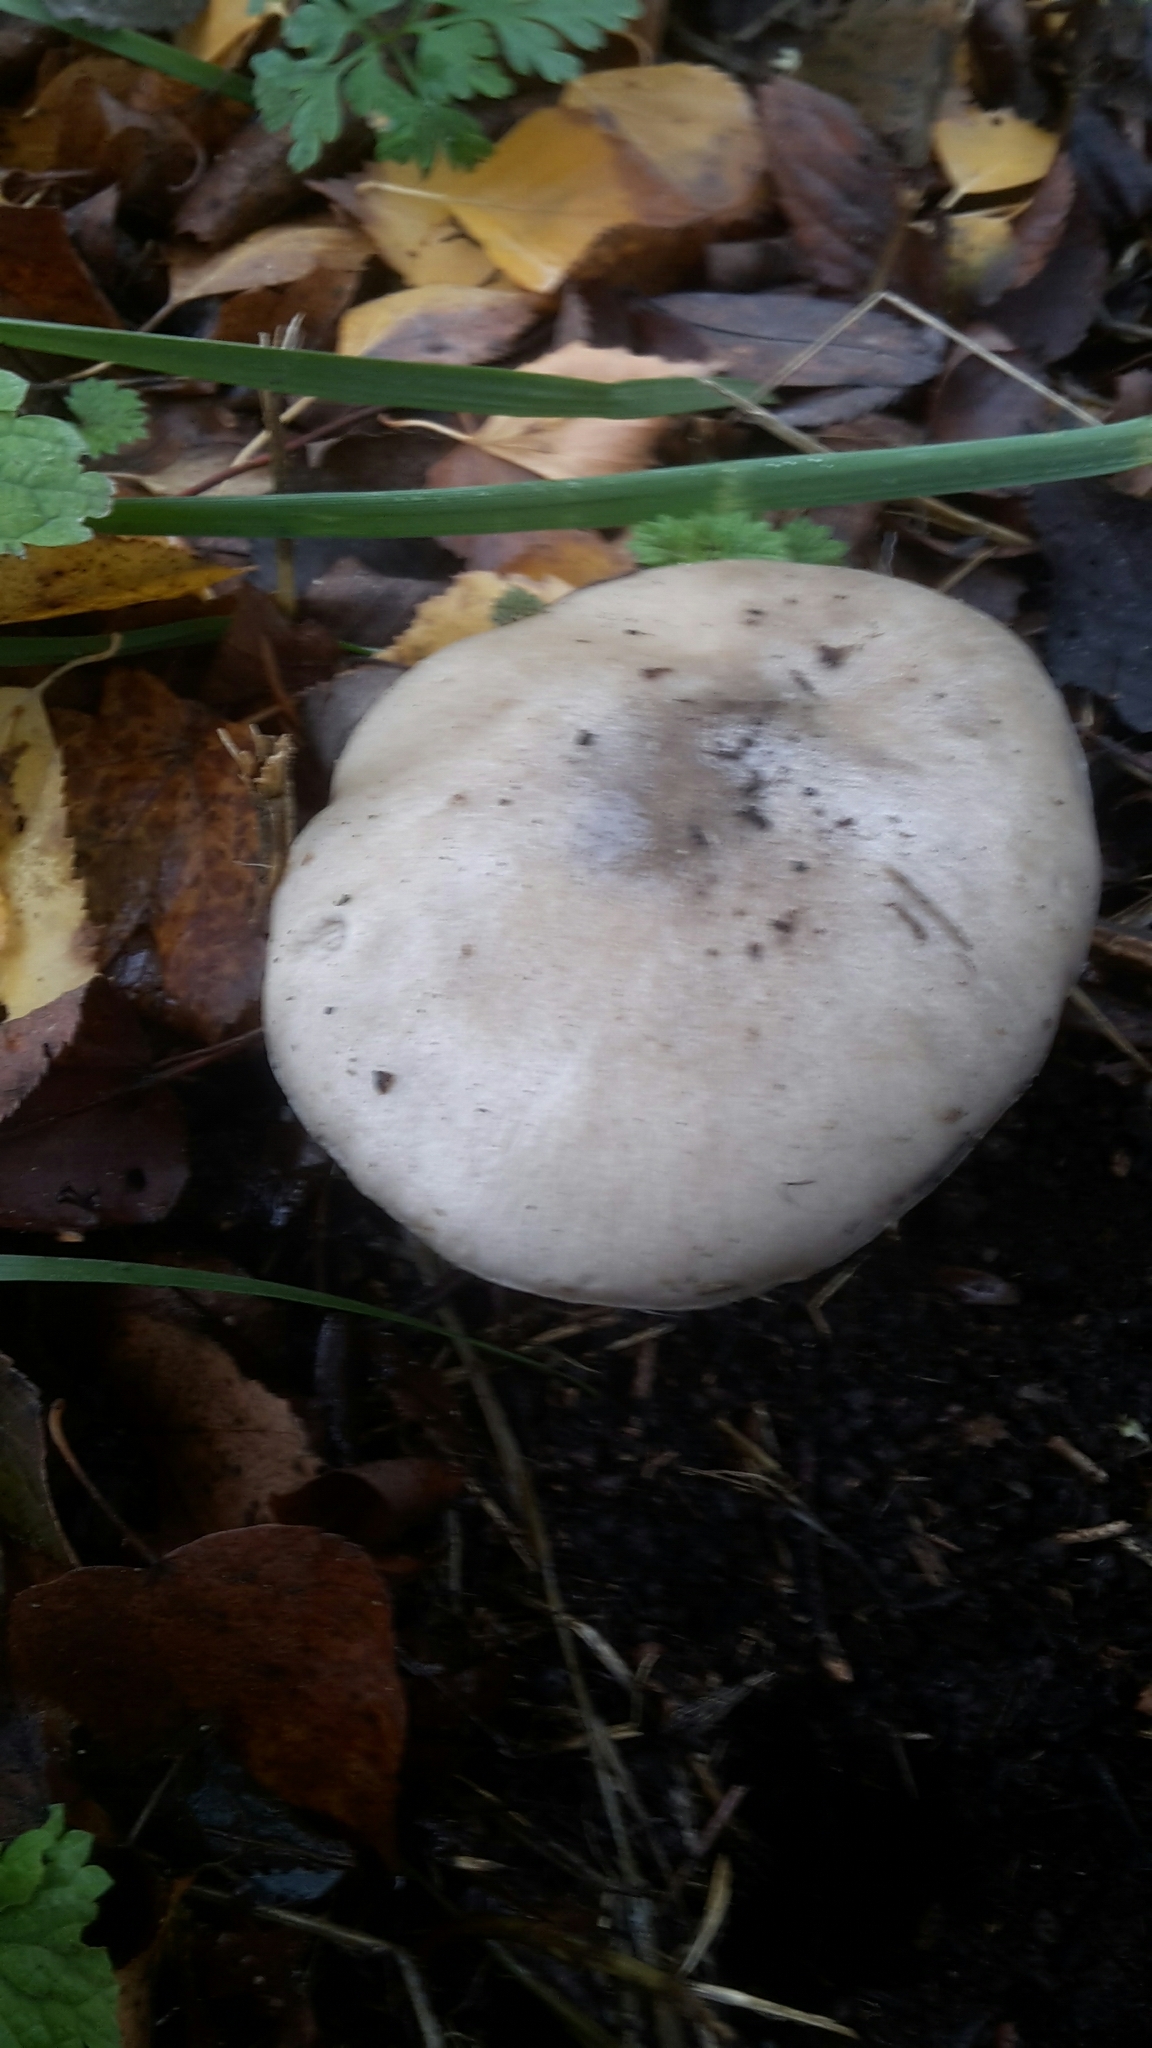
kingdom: Fungi
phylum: Basidiomycota
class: Agaricomycetes
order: Agaricales
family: Pluteaceae
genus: Volvopluteus
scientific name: Volvopluteus gloiocephalus
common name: Stubble rosegill
